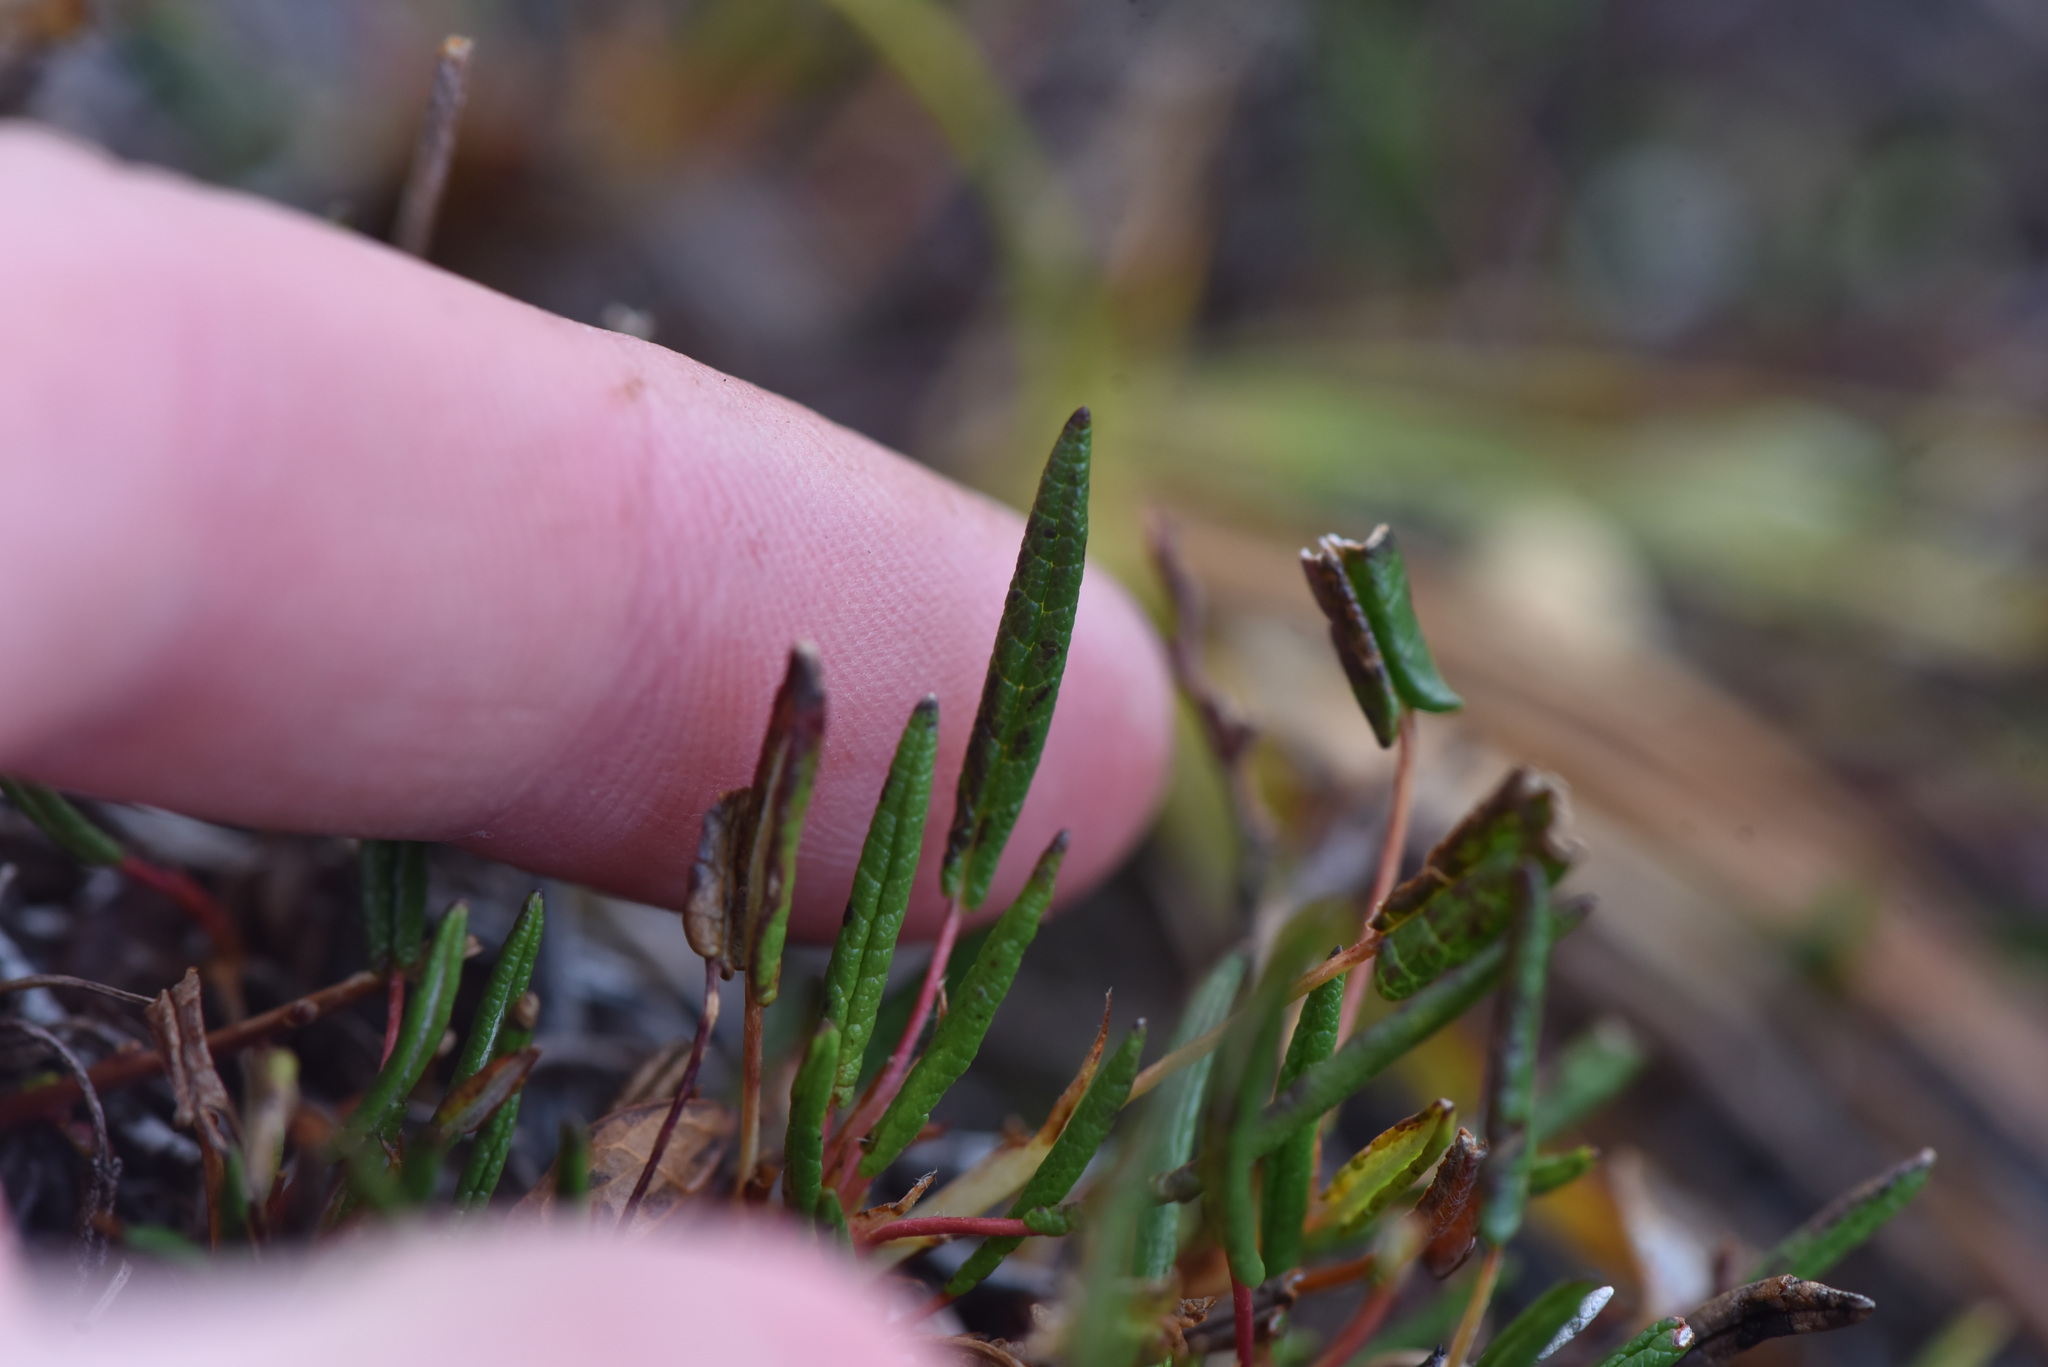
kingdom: Plantae
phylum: Tracheophyta
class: Magnoliopsida
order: Ericales
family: Ericaceae
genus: Andromeda
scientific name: Andromeda polifolia
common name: Bog-rosemary
